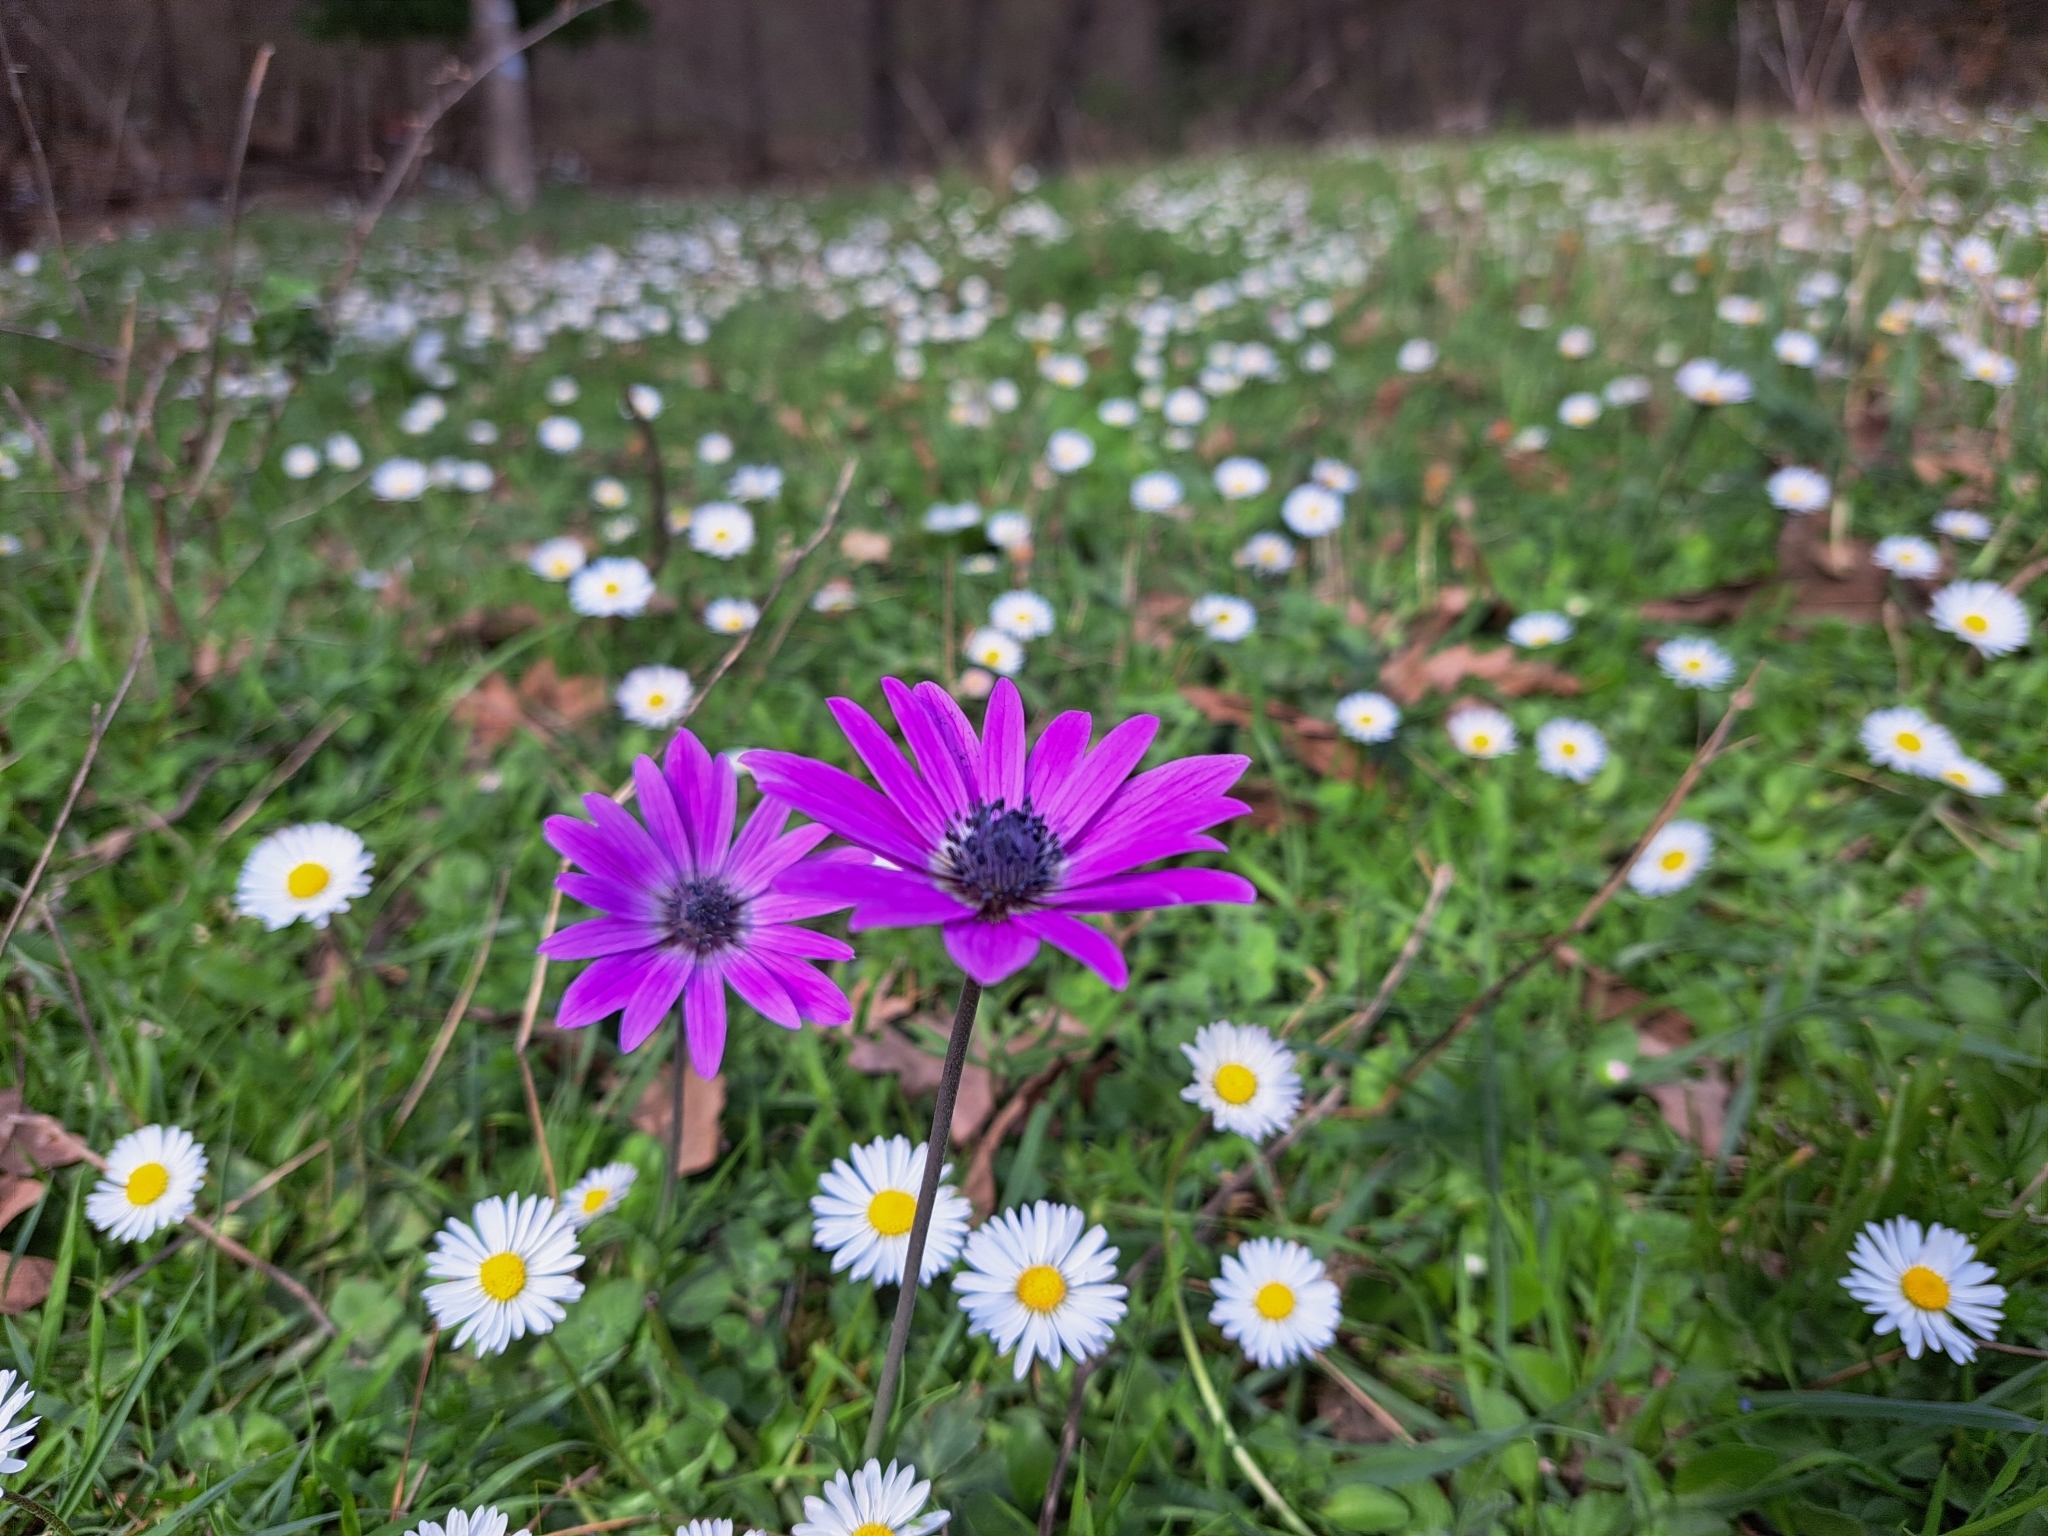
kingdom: Plantae
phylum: Tracheophyta
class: Magnoliopsida
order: Ranunculales
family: Ranunculaceae
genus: Anemone
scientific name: Anemone hortensis
